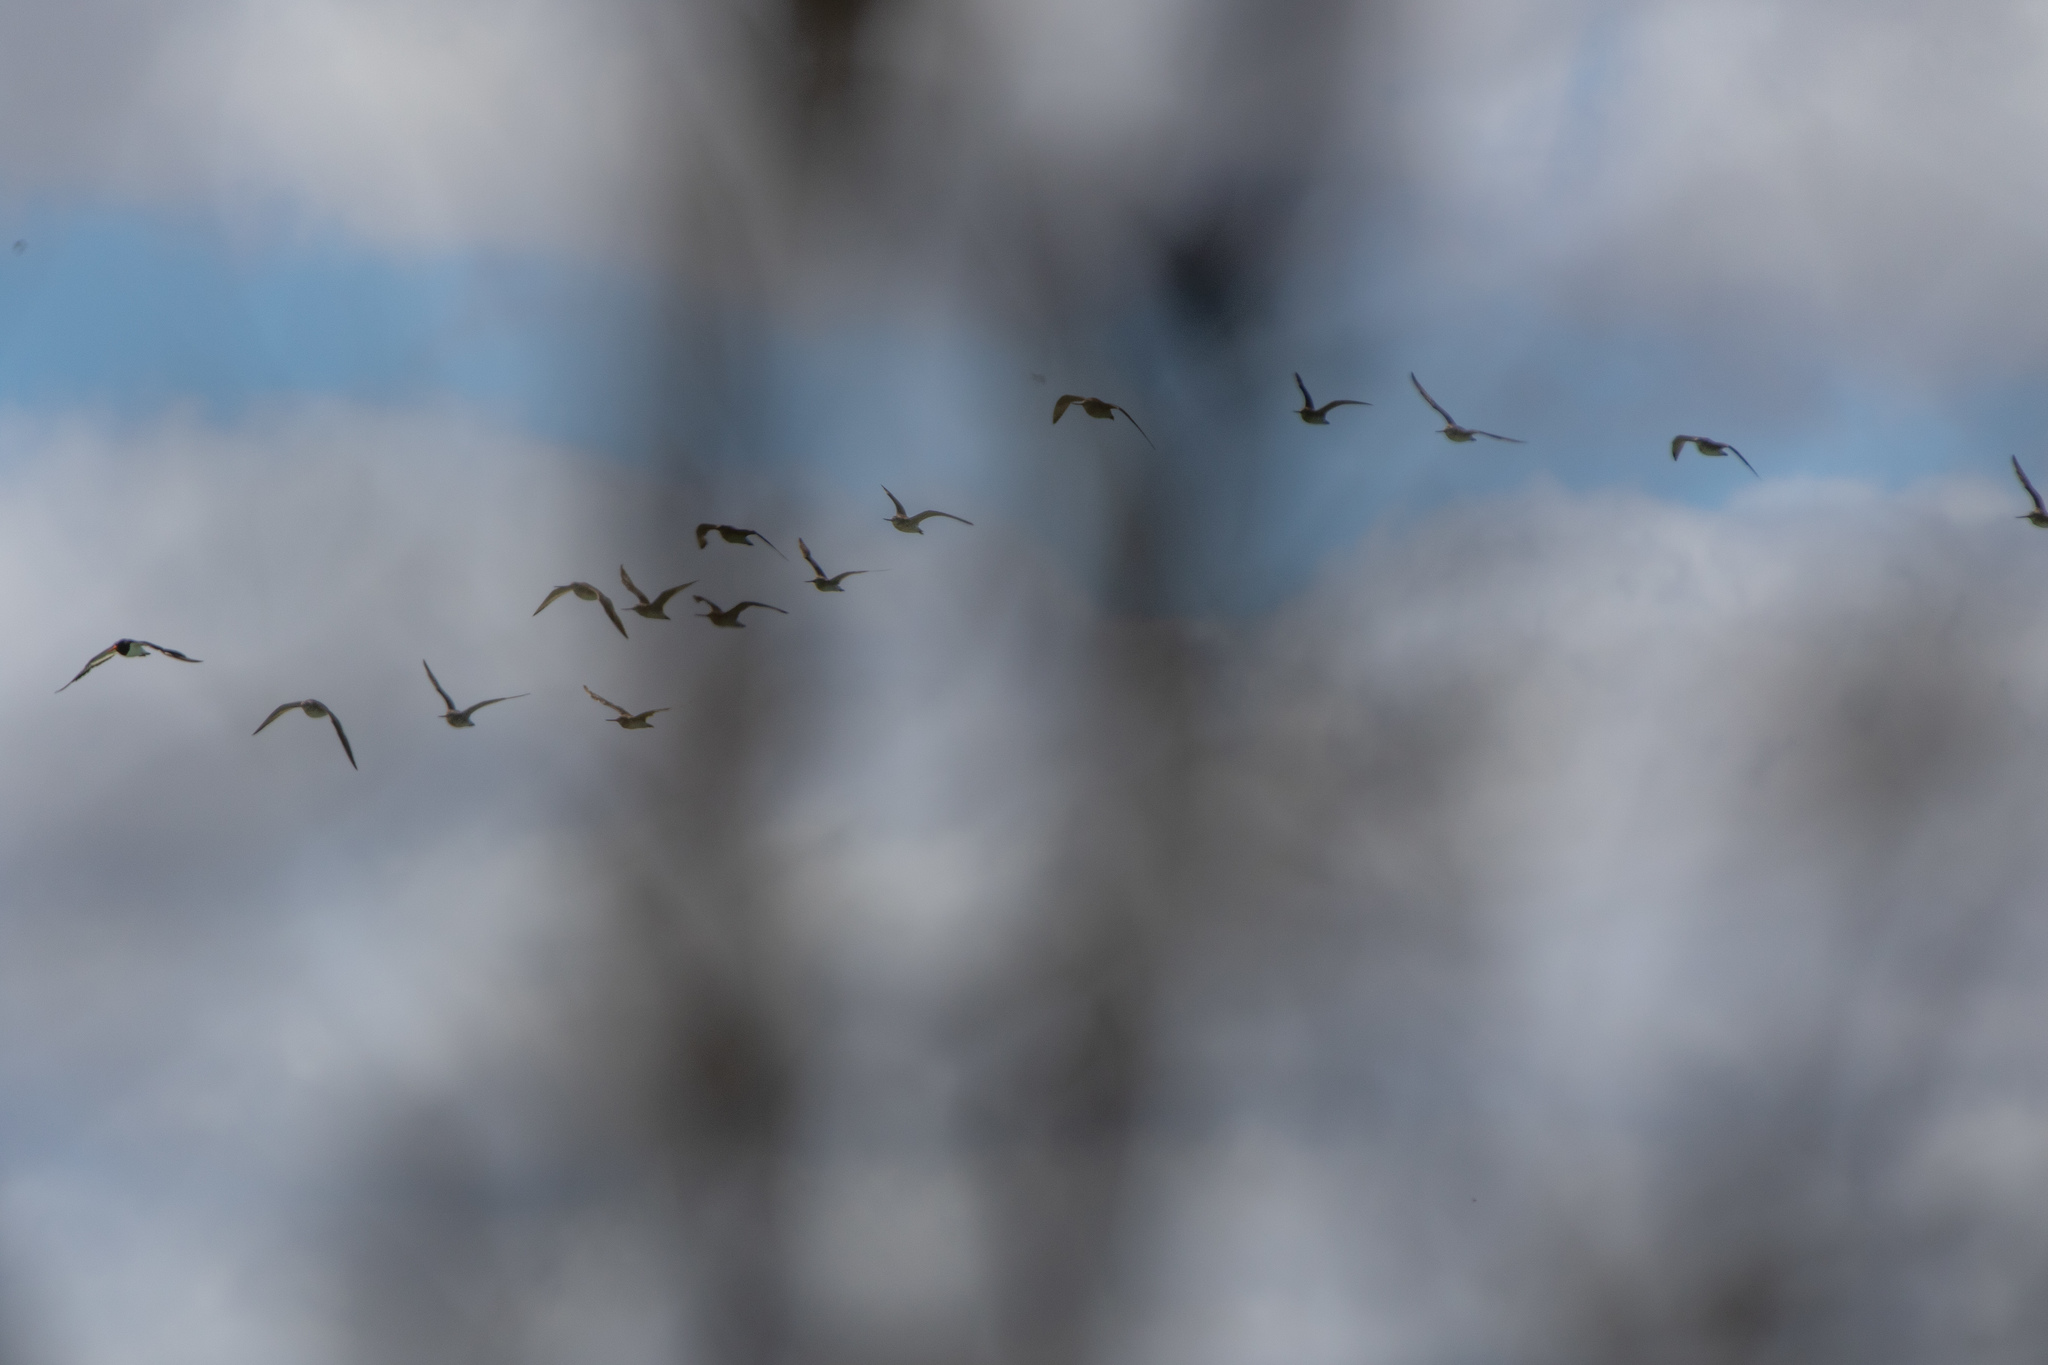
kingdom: Animalia
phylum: Chordata
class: Aves
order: Charadriiformes
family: Scolopacidae
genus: Limosa
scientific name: Limosa lapponica
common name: Bar-tailed godwit
